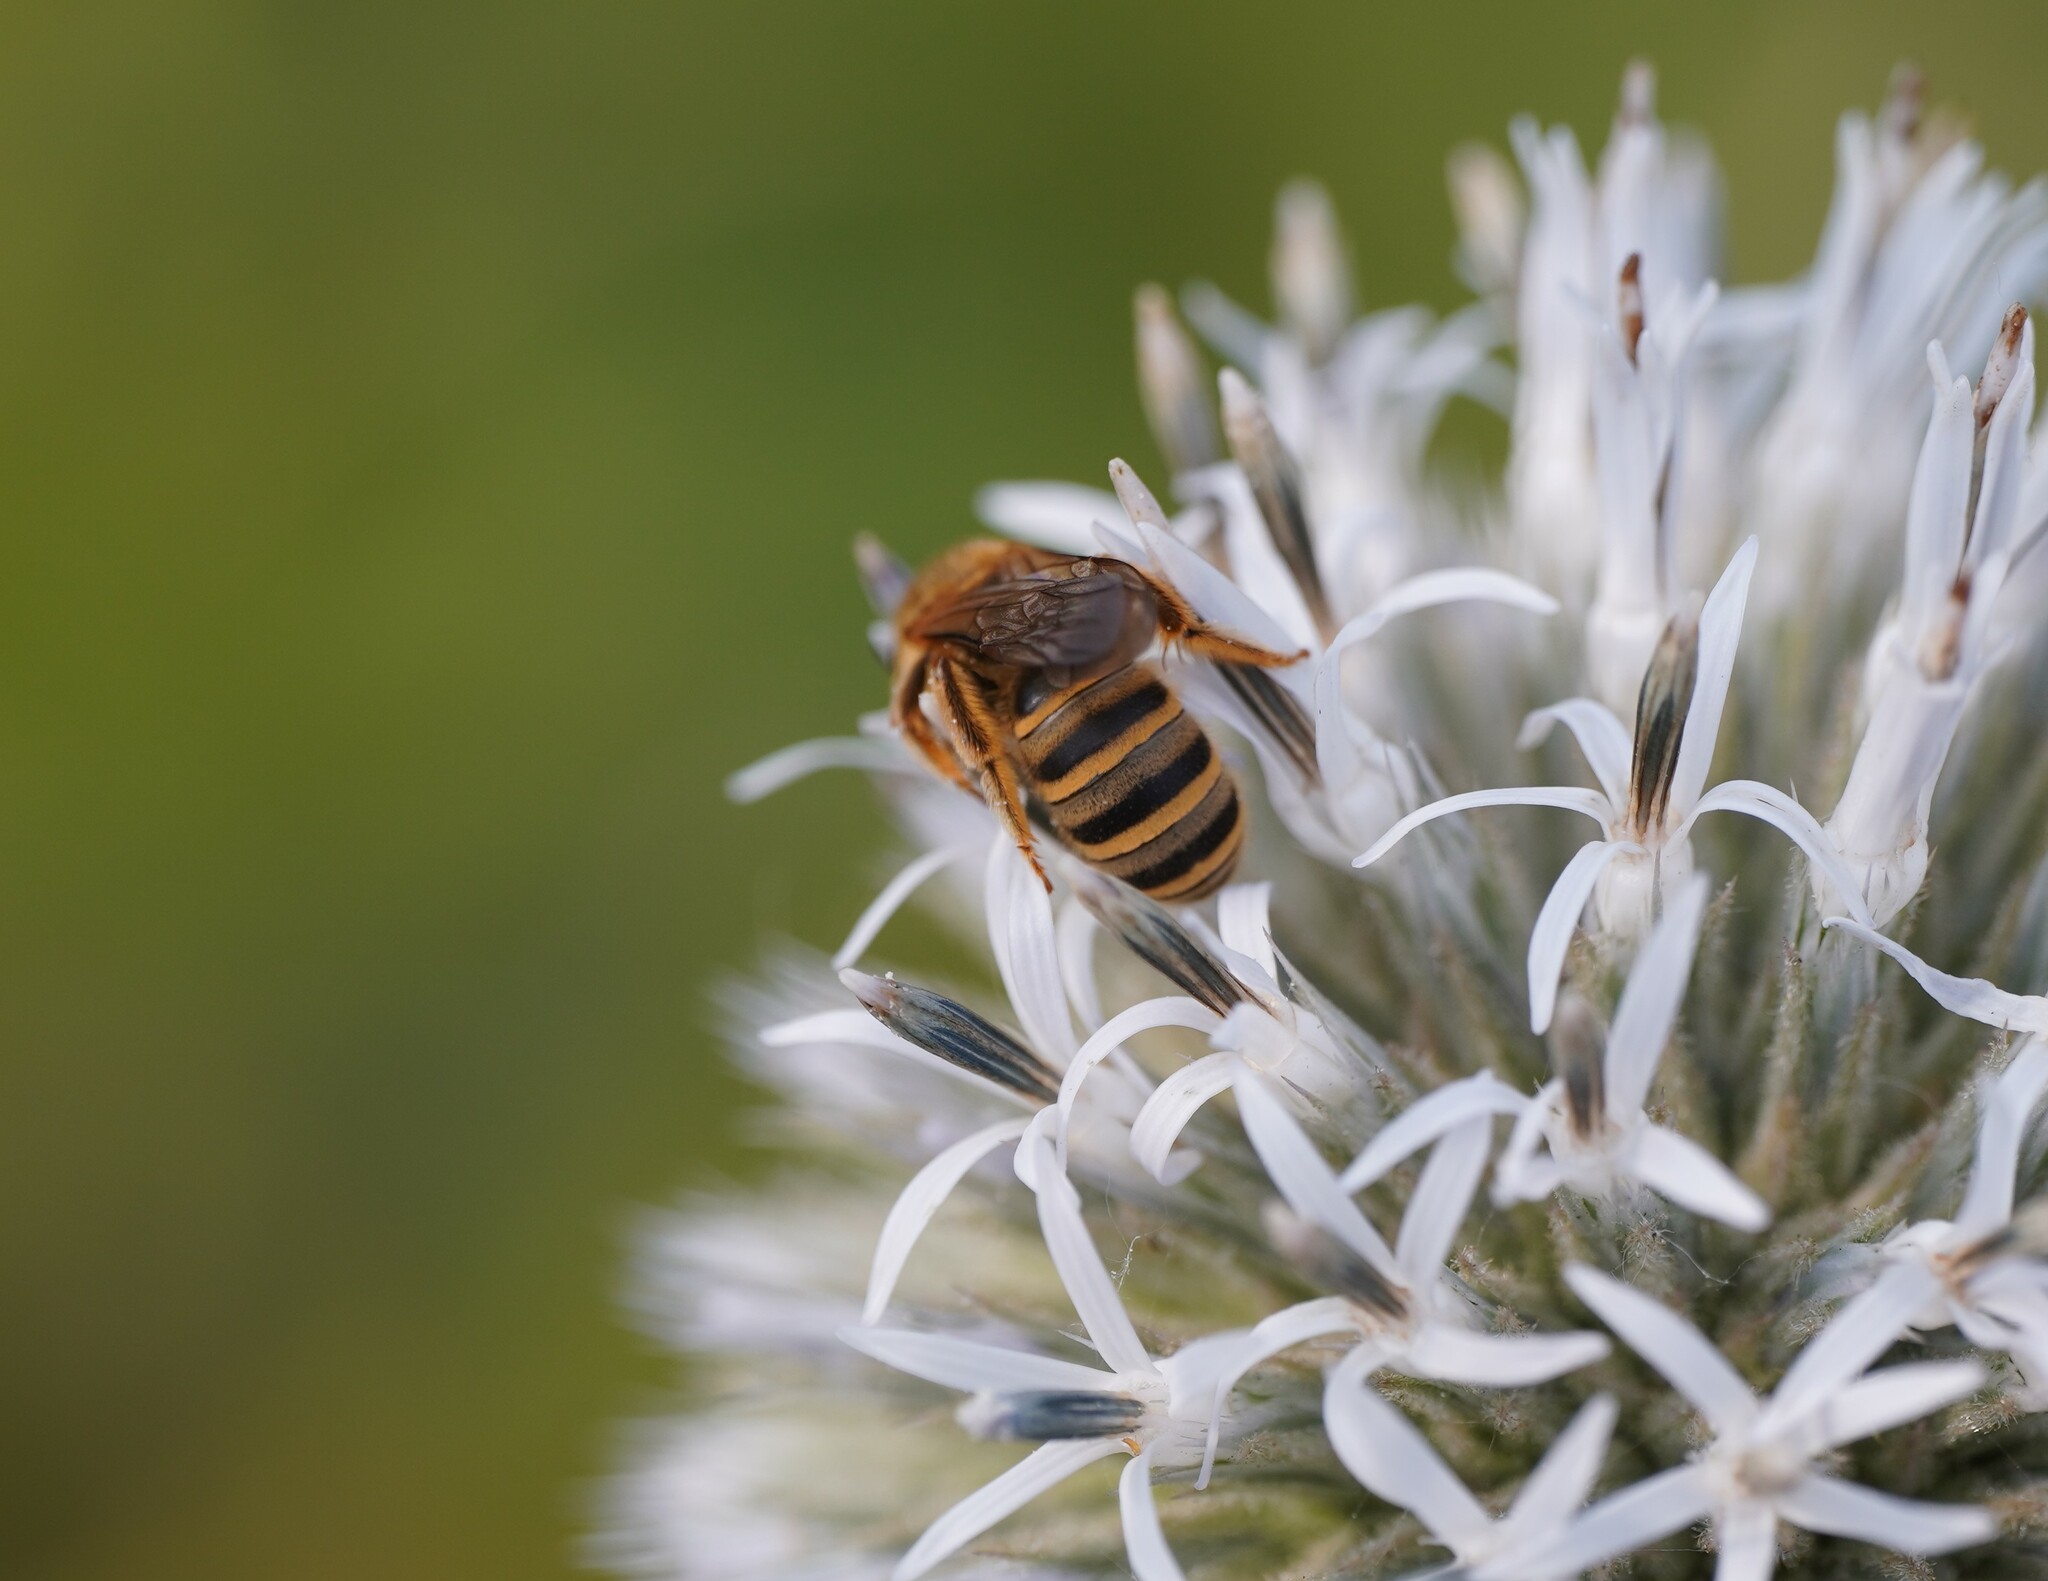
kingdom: Animalia
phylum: Arthropoda
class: Insecta
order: Hymenoptera
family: Halictidae
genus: Halictus
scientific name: Halictus scabiosae
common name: Great banded furrow bee
